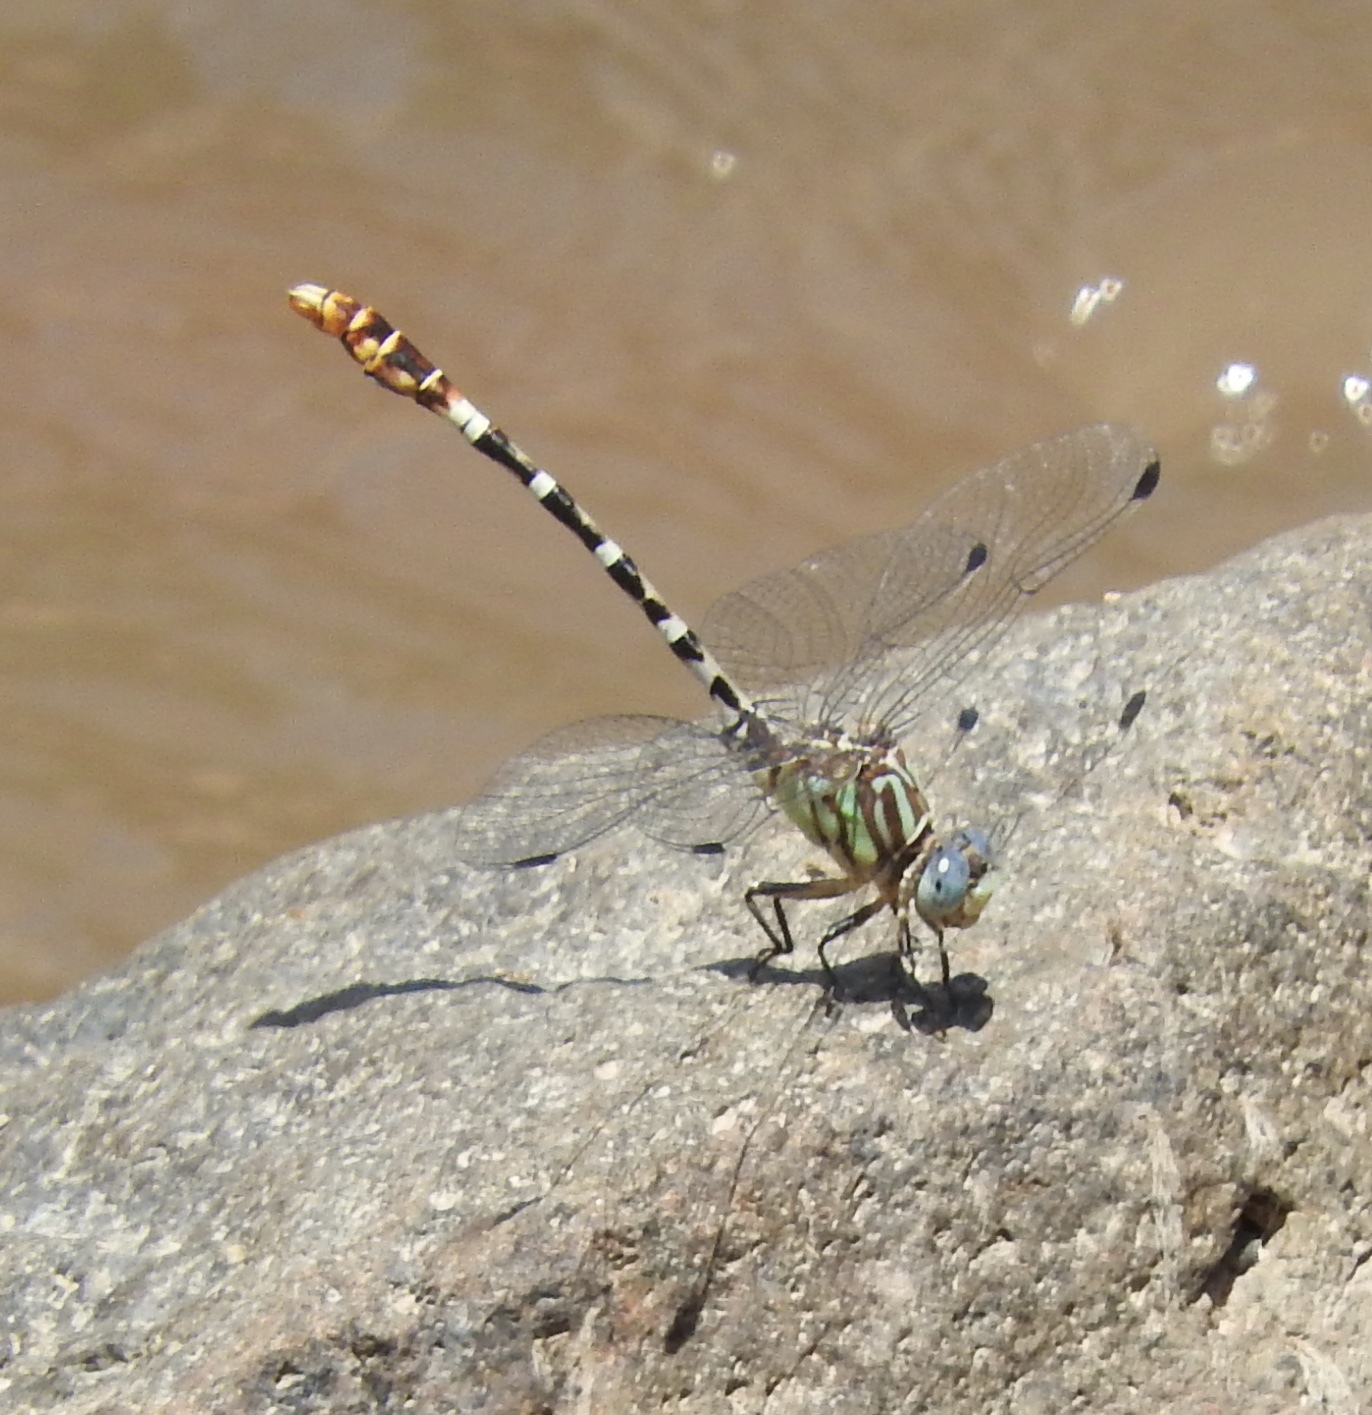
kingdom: Animalia
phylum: Arthropoda
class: Insecta
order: Odonata
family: Gomphidae
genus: Erpetogomphus
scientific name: Erpetogomphus lampropeltis
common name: Serpent ringtail
